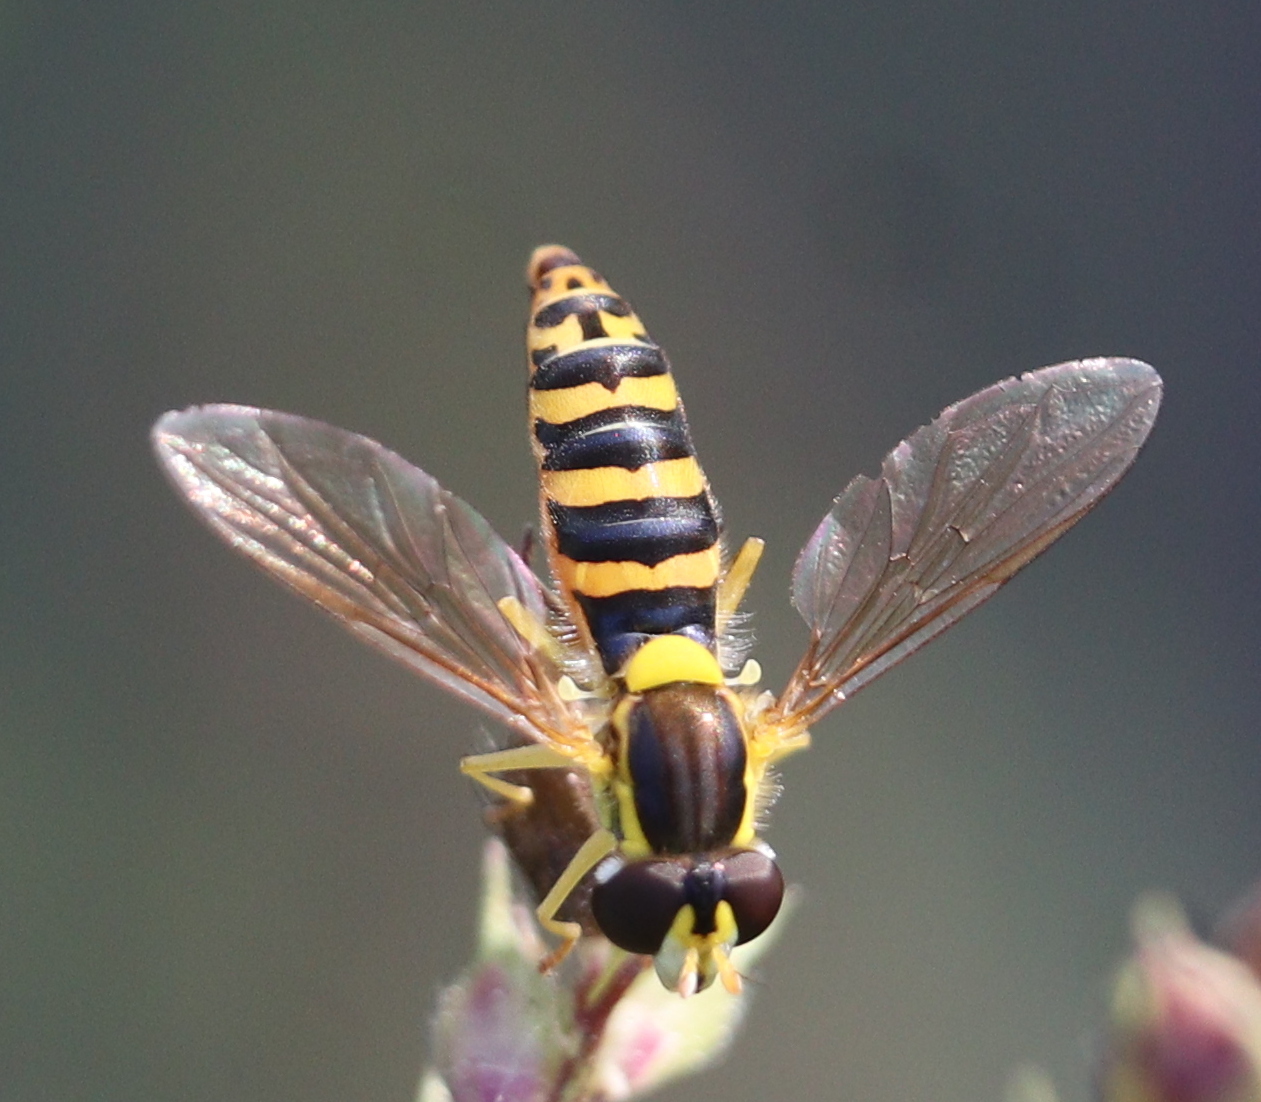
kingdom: Animalia
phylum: Arthropoda
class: Insecta
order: Diptera
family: Syrphidae
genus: Sphaerophoria
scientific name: Sphaerophoria scripta
